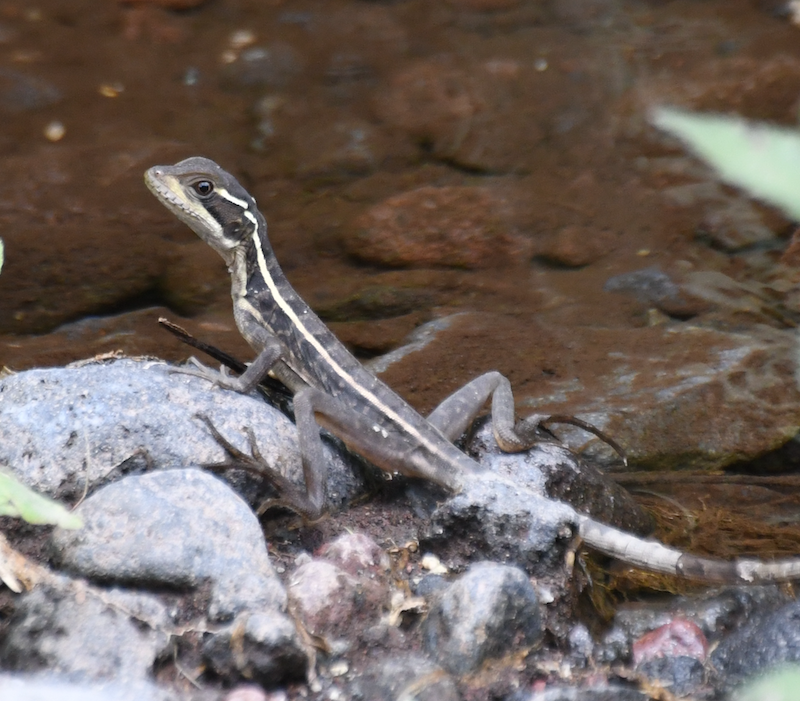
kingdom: Animalia
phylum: Chordata
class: Squamata
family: Corytophanidae
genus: Basiliscus
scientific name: Basiliscus vittatus
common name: Brown basilisk
